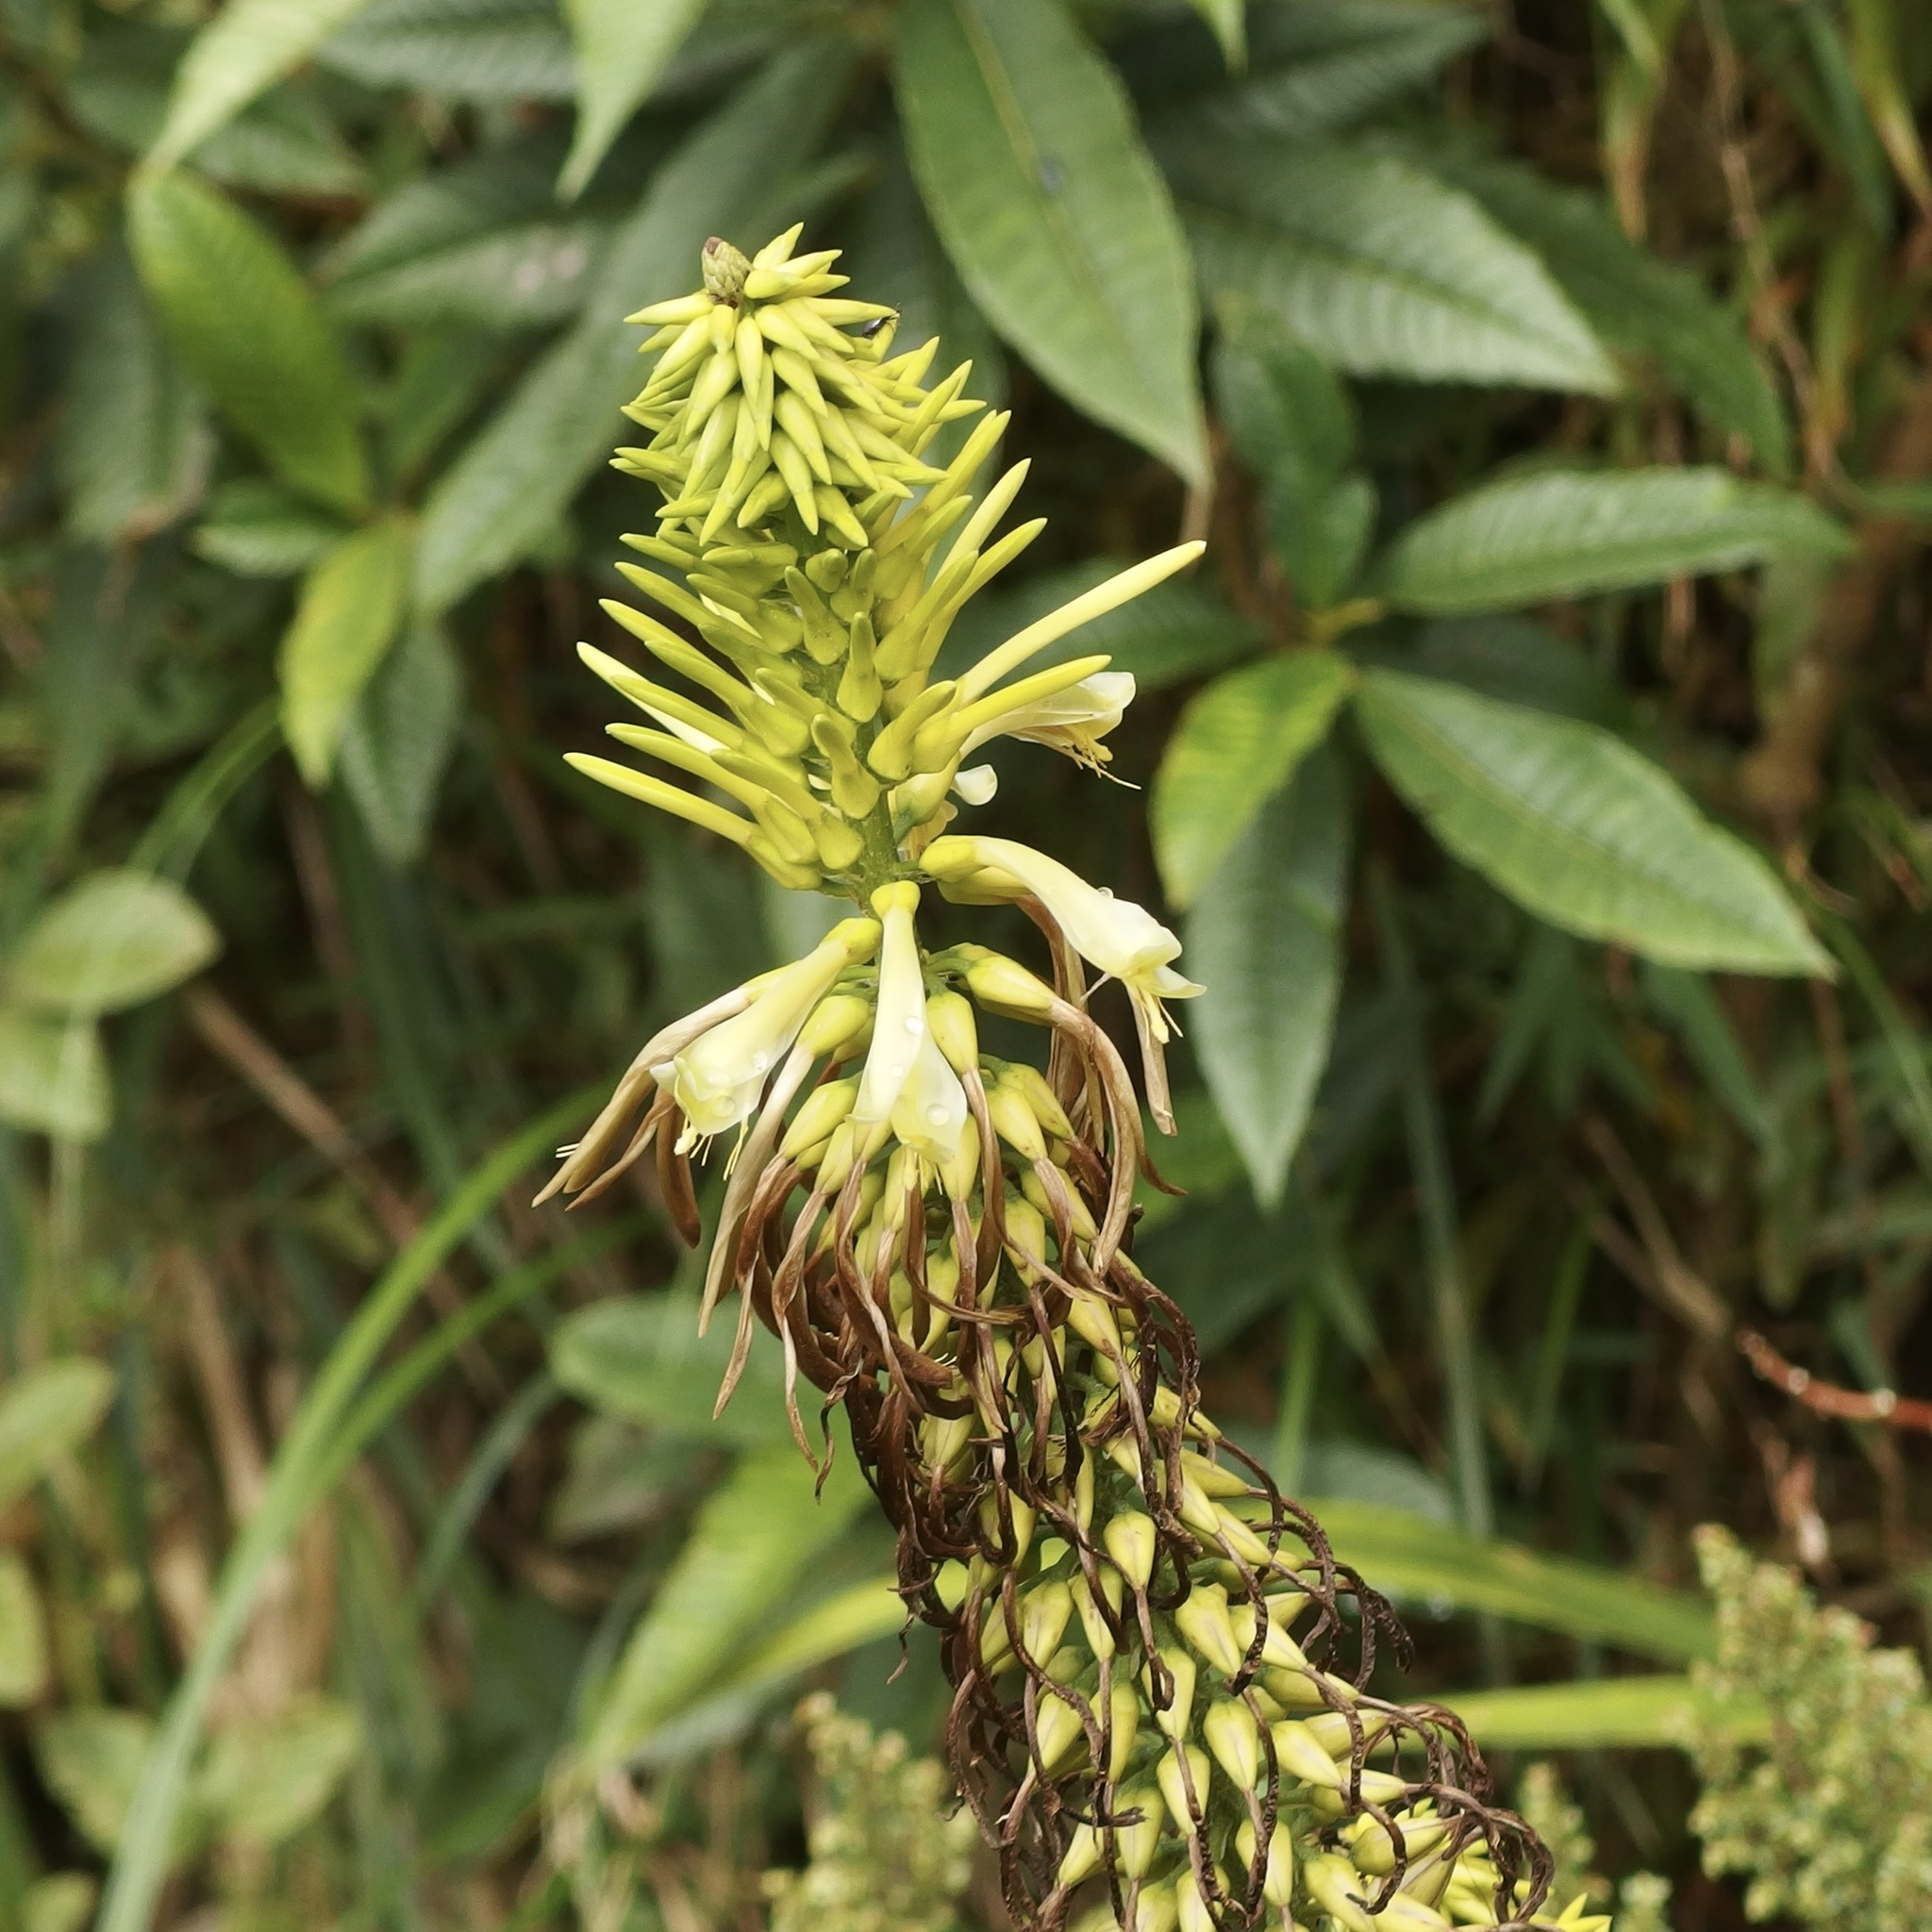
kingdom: Plantae
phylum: Tracheophyta
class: Liliopsida
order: Poales
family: Bromeliaceae
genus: Pitcairnia
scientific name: Pitcairnia trianae
